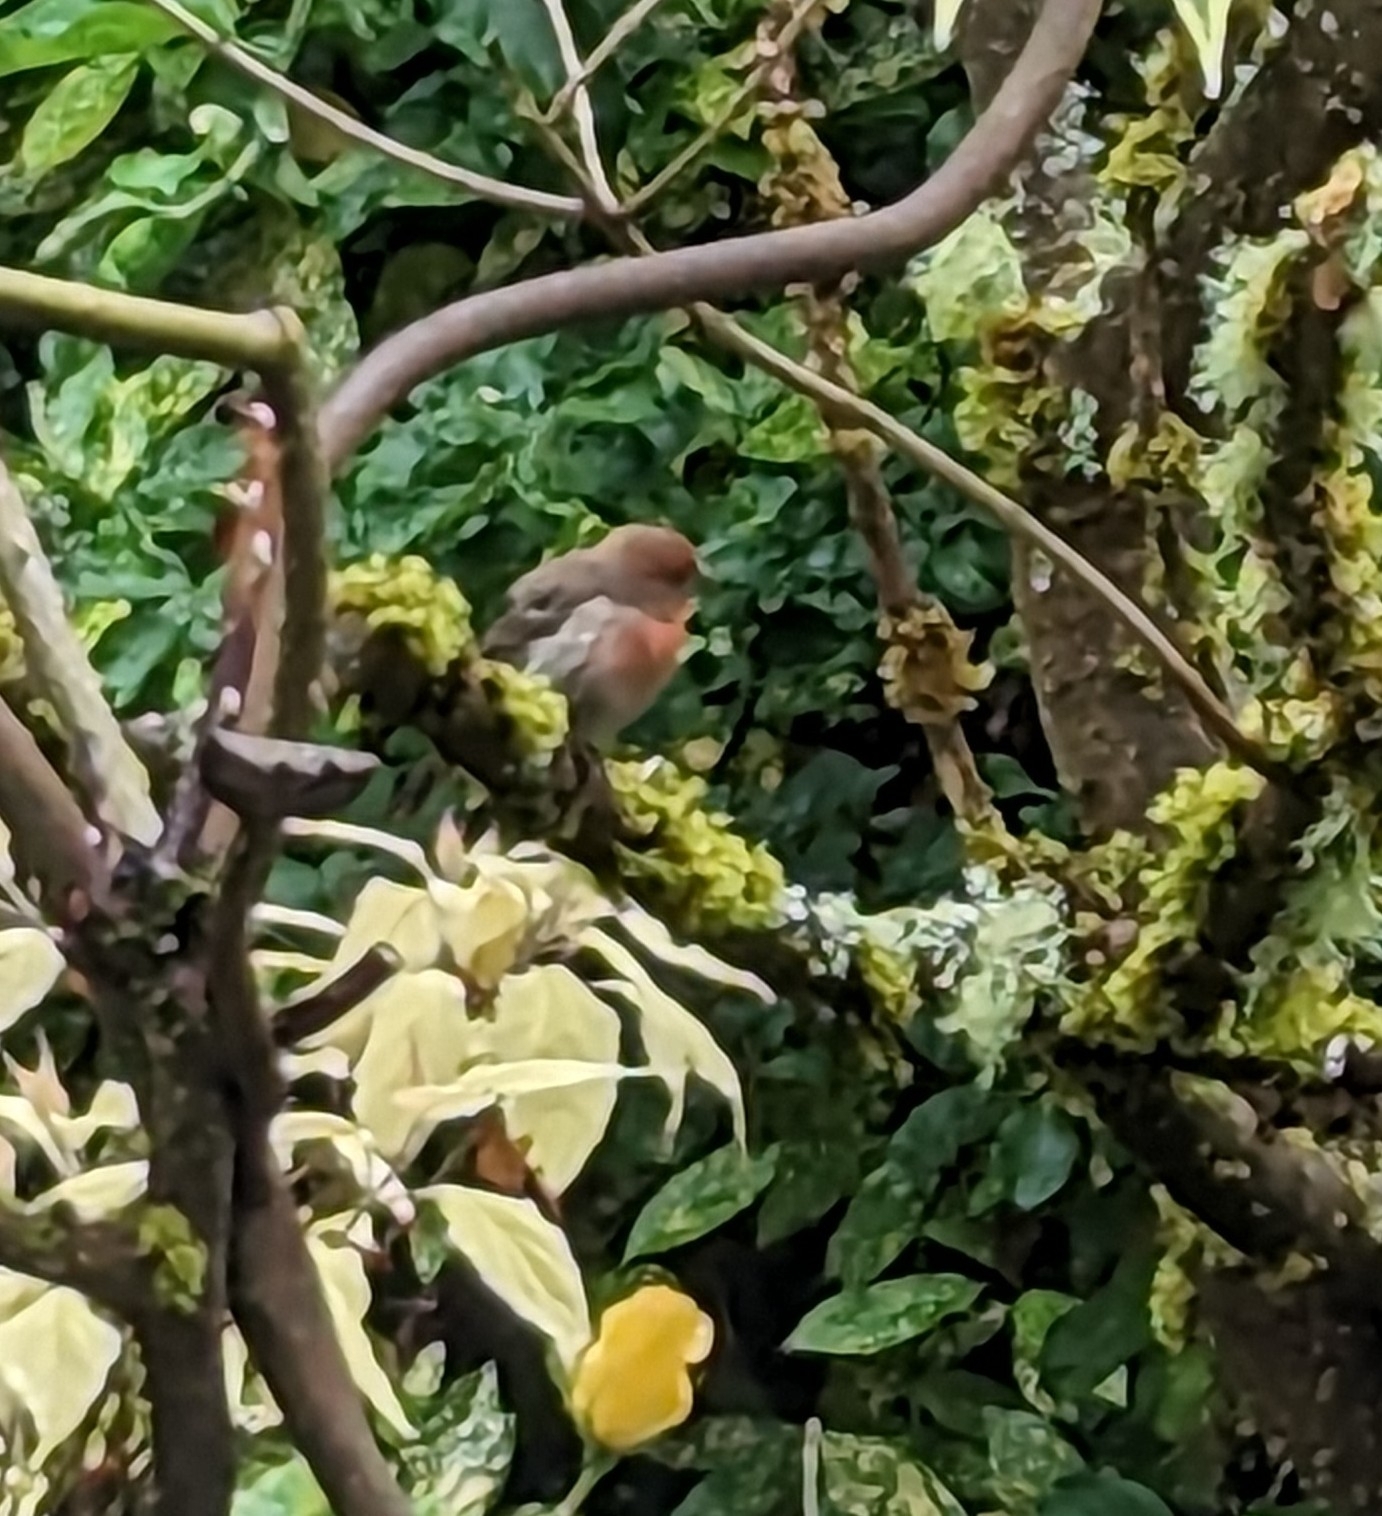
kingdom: Animalia
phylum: Chordata
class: Aves
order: Passeriformes
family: Fringillidae
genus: Haemorhous
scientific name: Haemorhous mexicanus
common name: House finch
